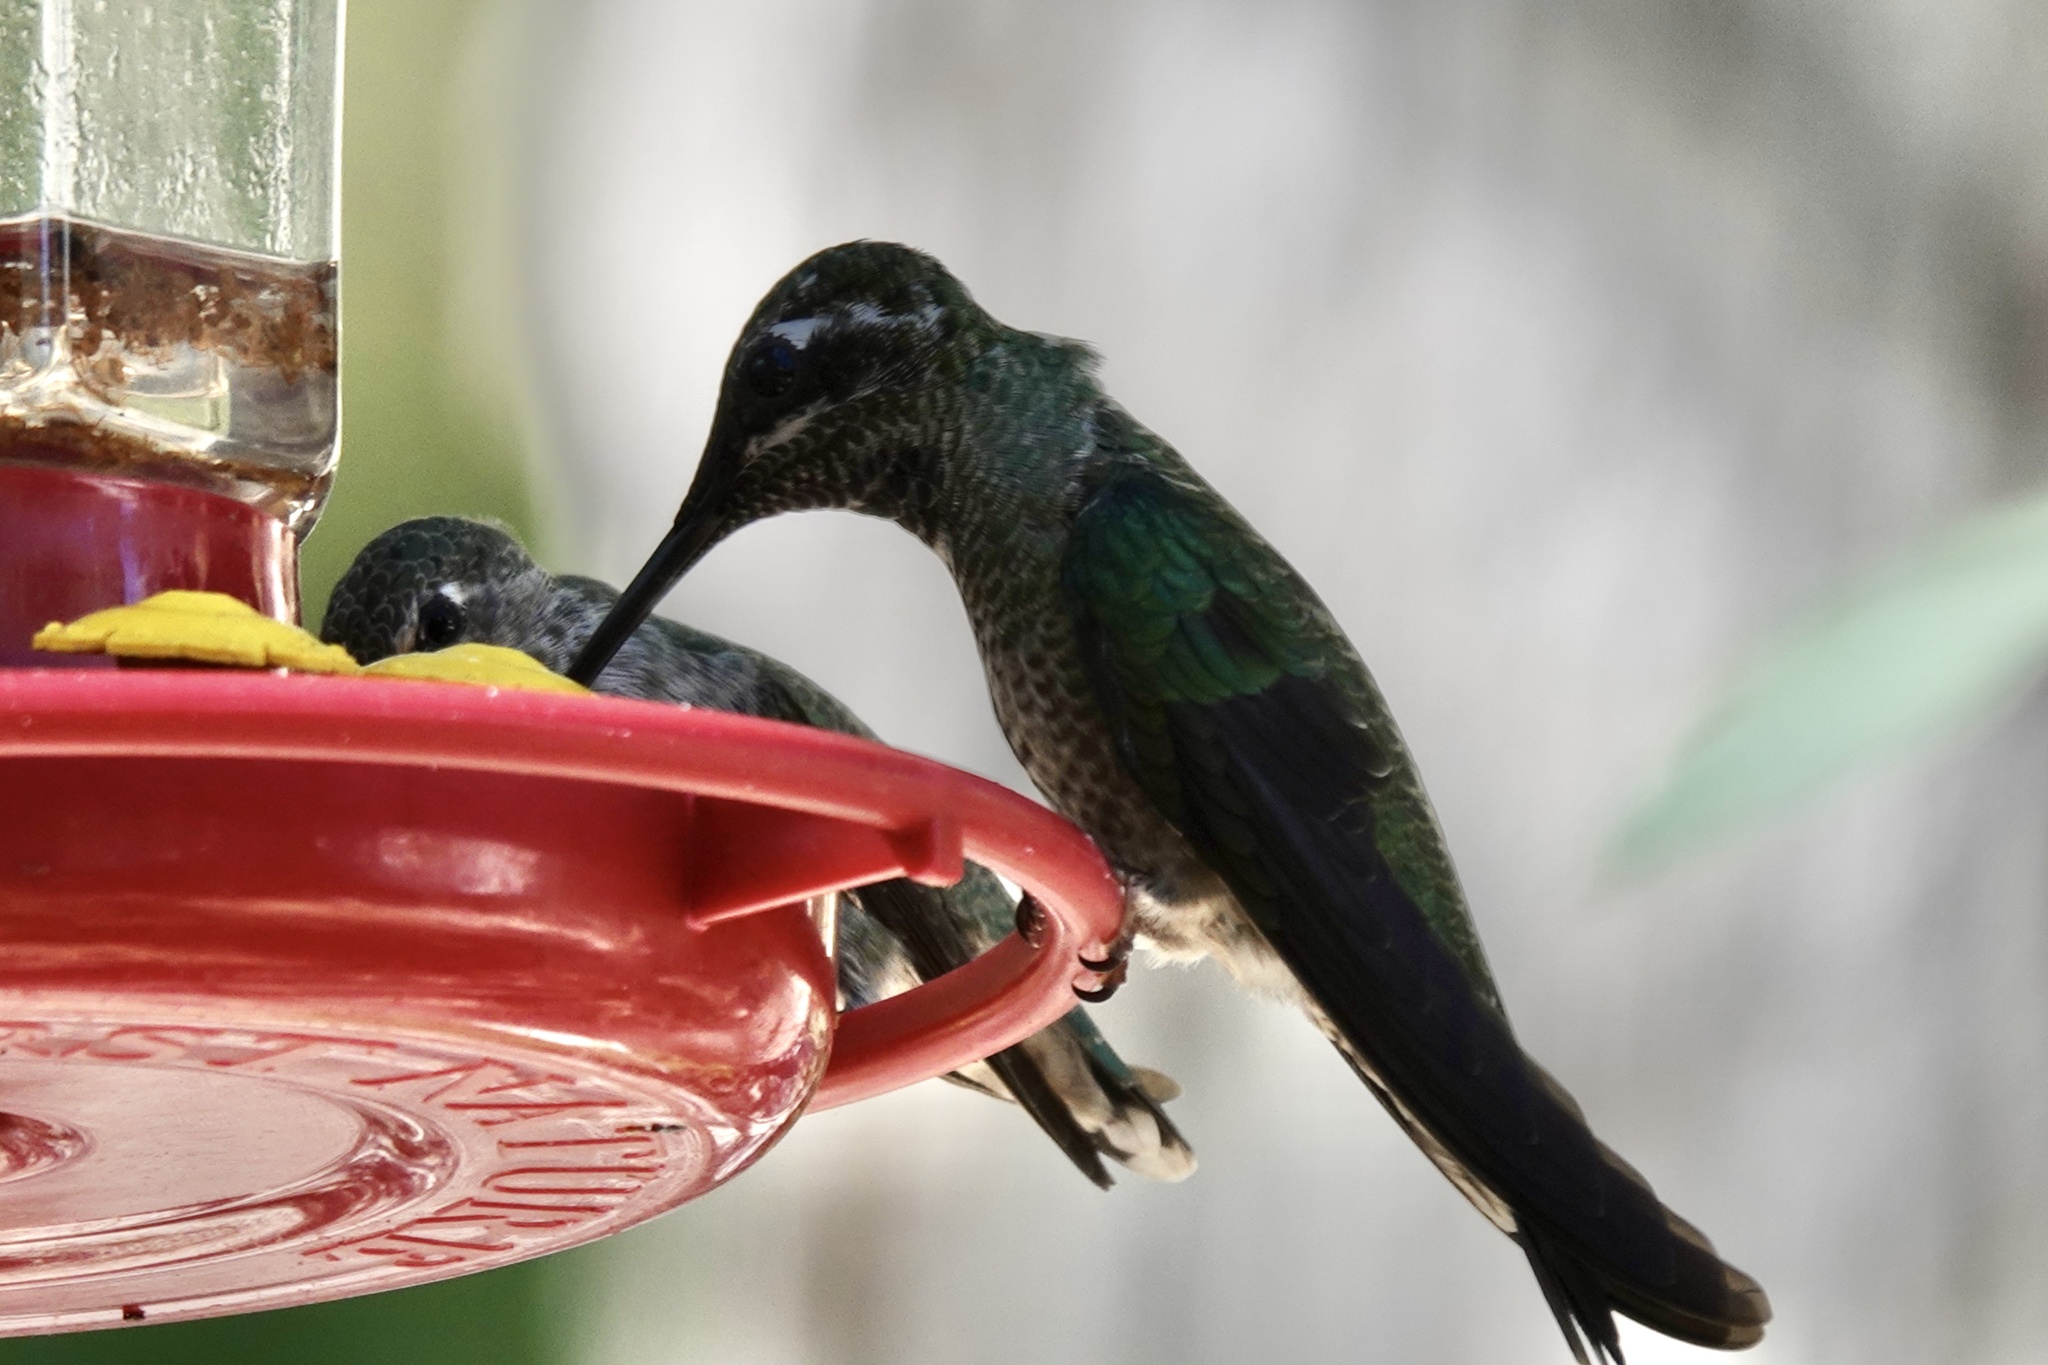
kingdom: Animalia
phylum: Chordata
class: Aves
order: Apodiformes
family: Trochilidae
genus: Eugenes
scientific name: Eugenes fulgens
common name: Magnificent hummingbird
